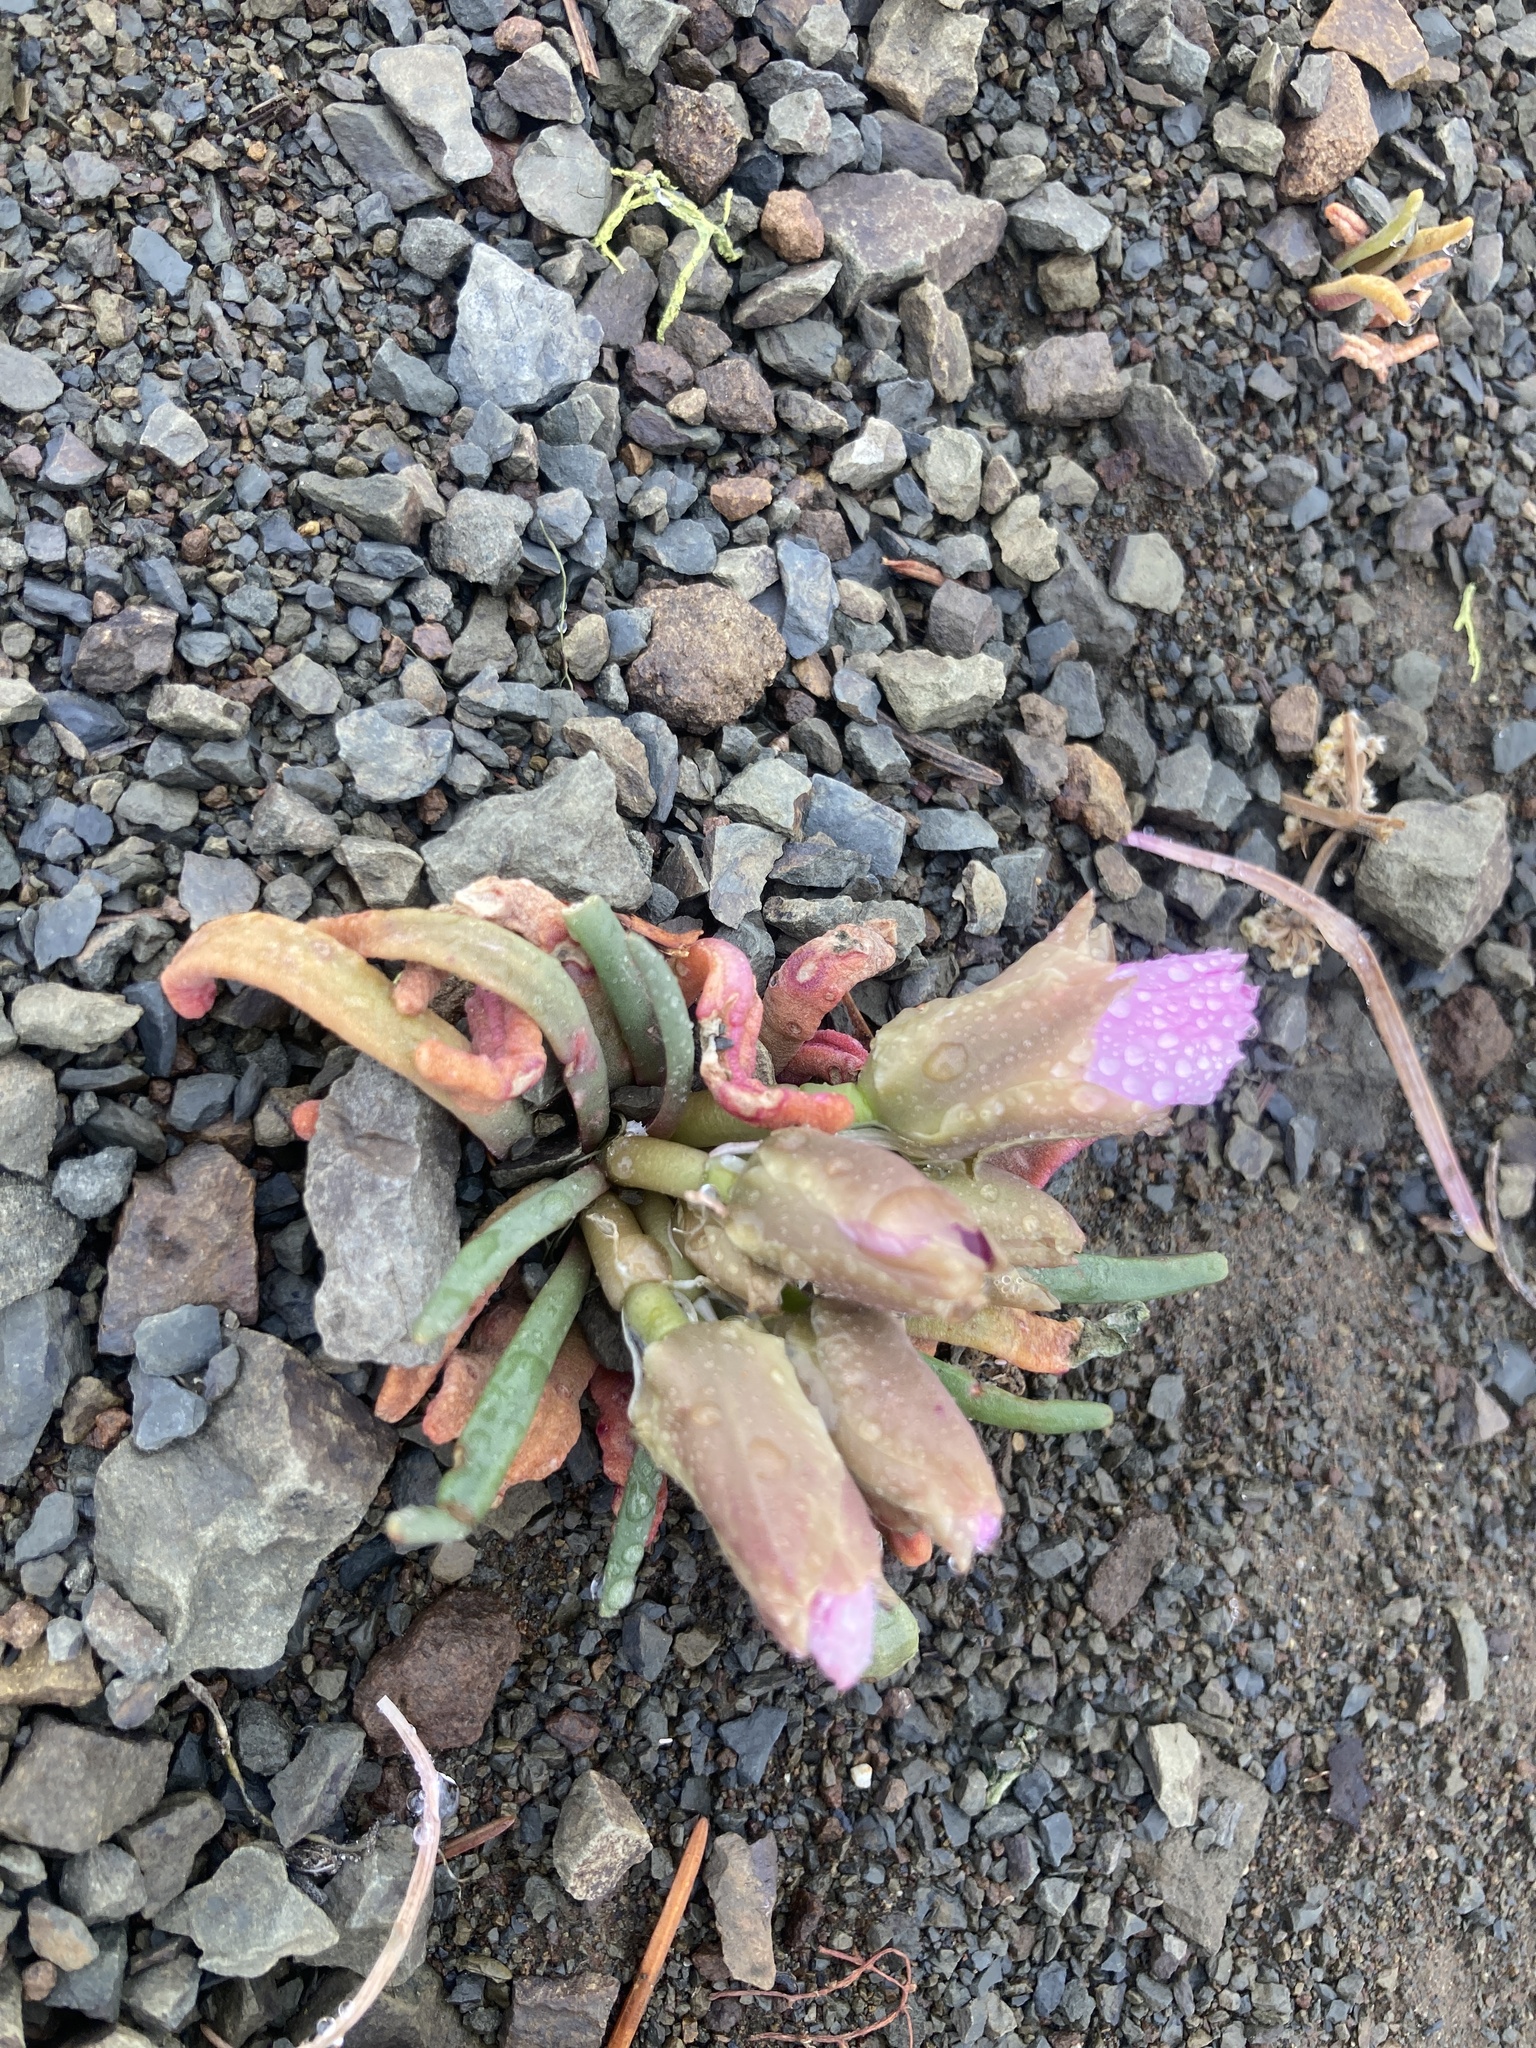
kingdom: Plantae
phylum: Tracheophyta
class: Magnoliopsida
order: Caryophyllales
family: Montiaceae
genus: Lewisia
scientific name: Lewisia rediviva
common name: Bitter-root
